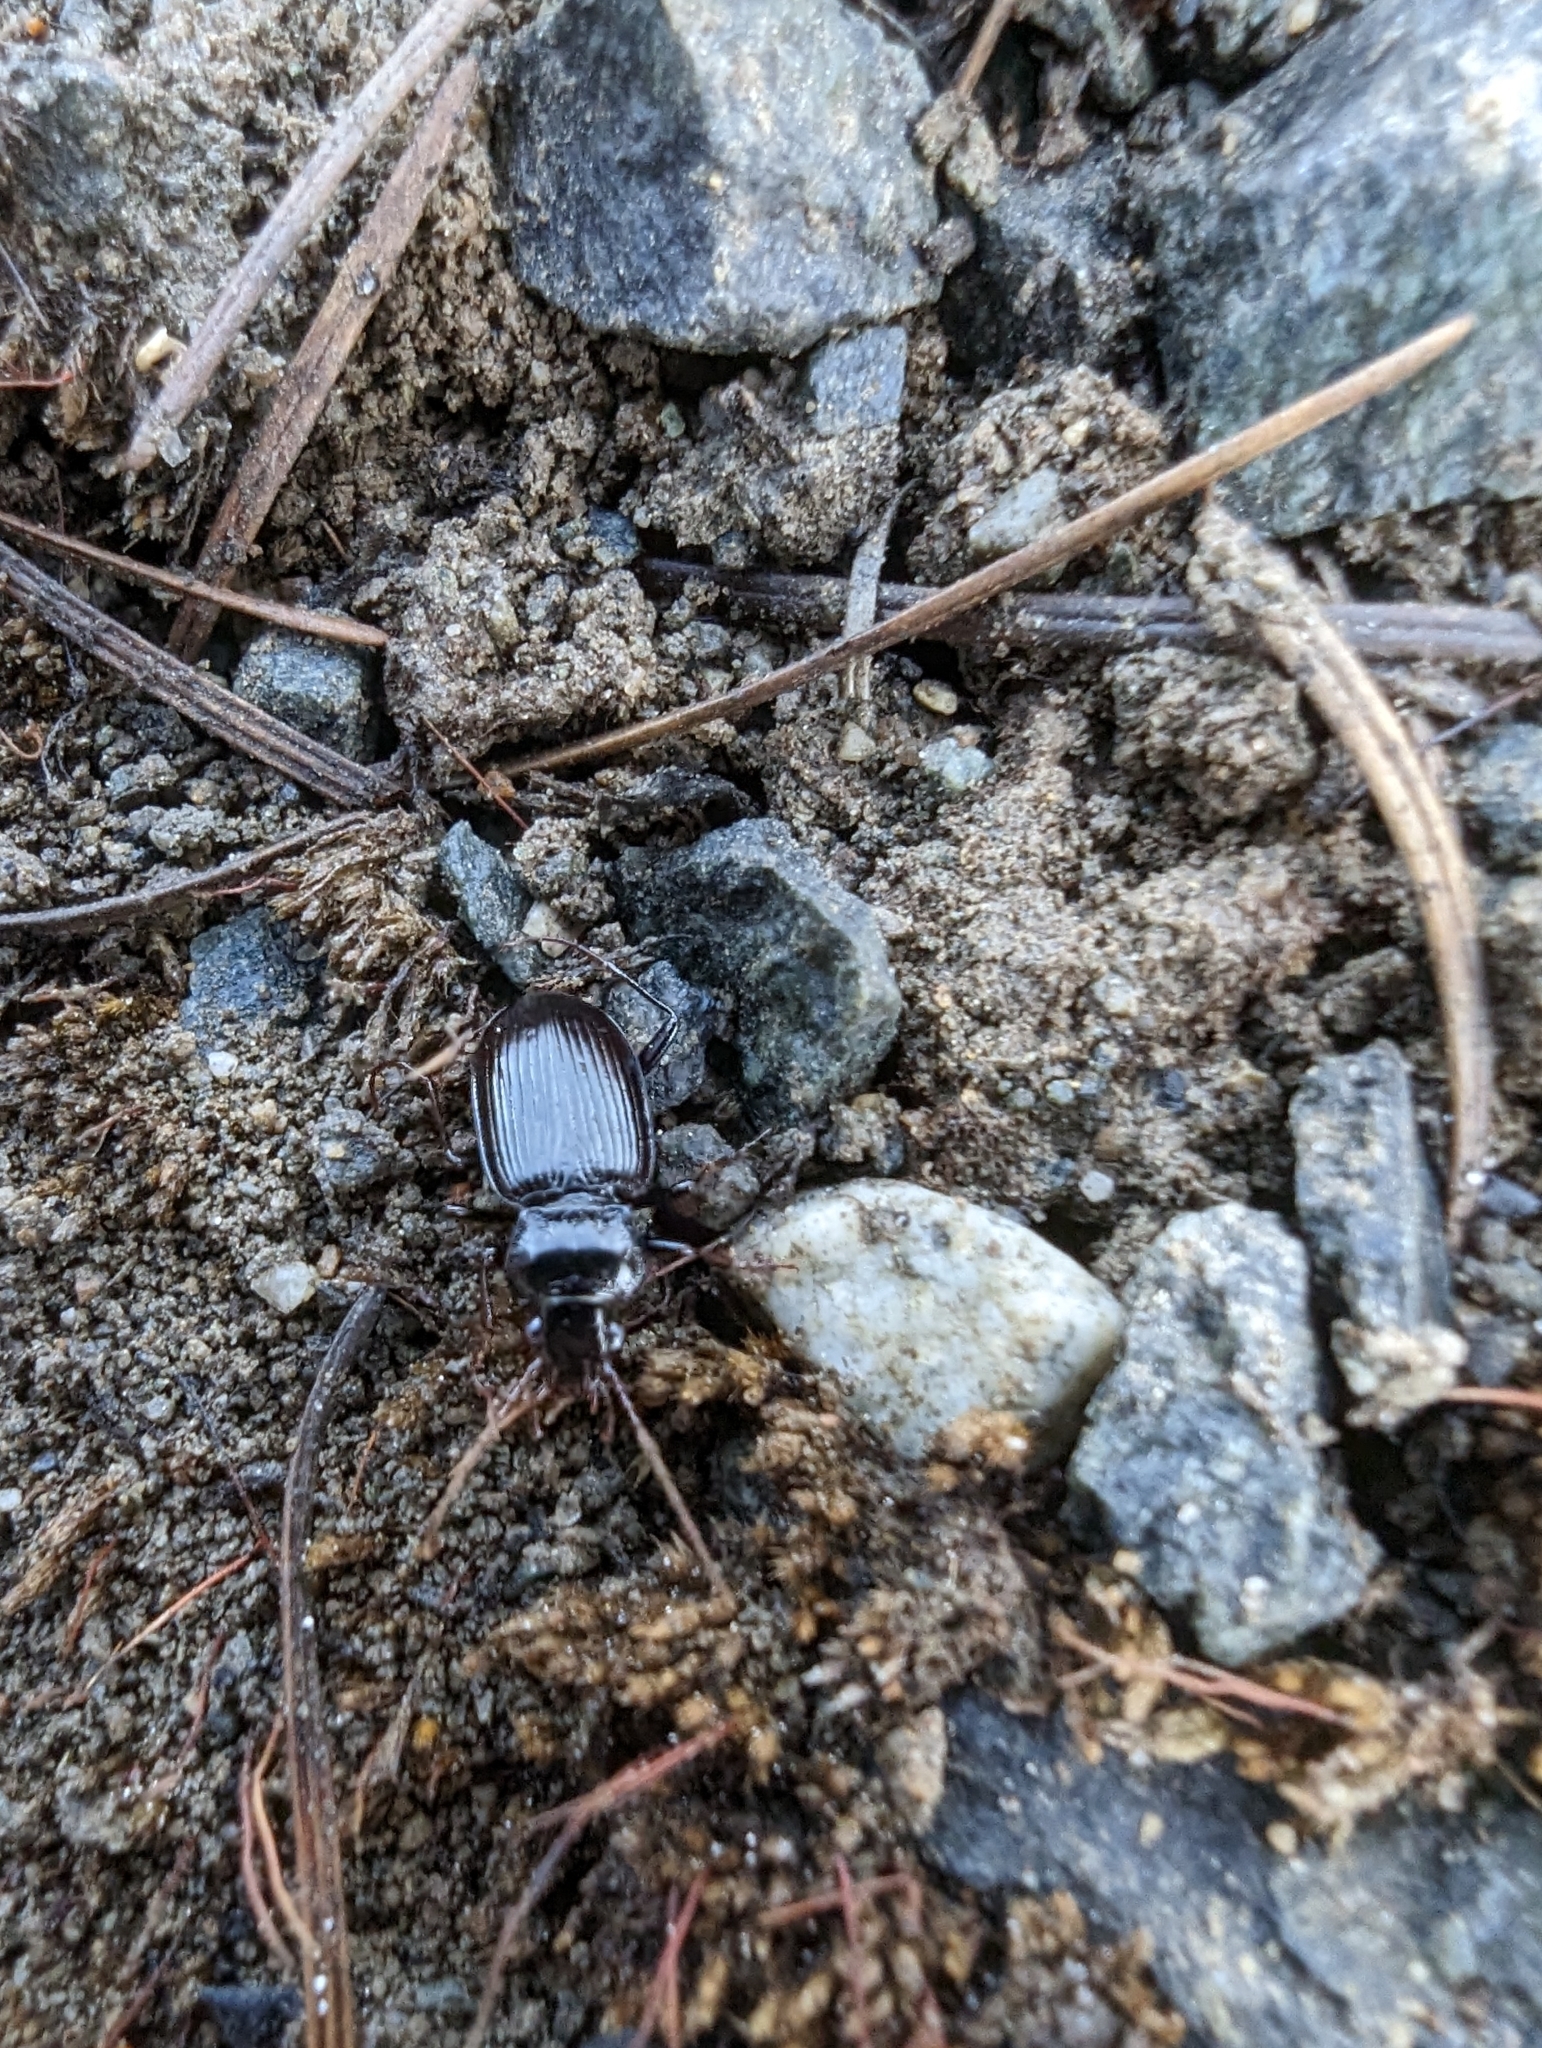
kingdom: Animalia
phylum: Arthropoda
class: Insecta
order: Coleoptera
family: Carabidae
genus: Nebria
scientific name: Nebria brevicollis
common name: Short-necked gazelle beetle
